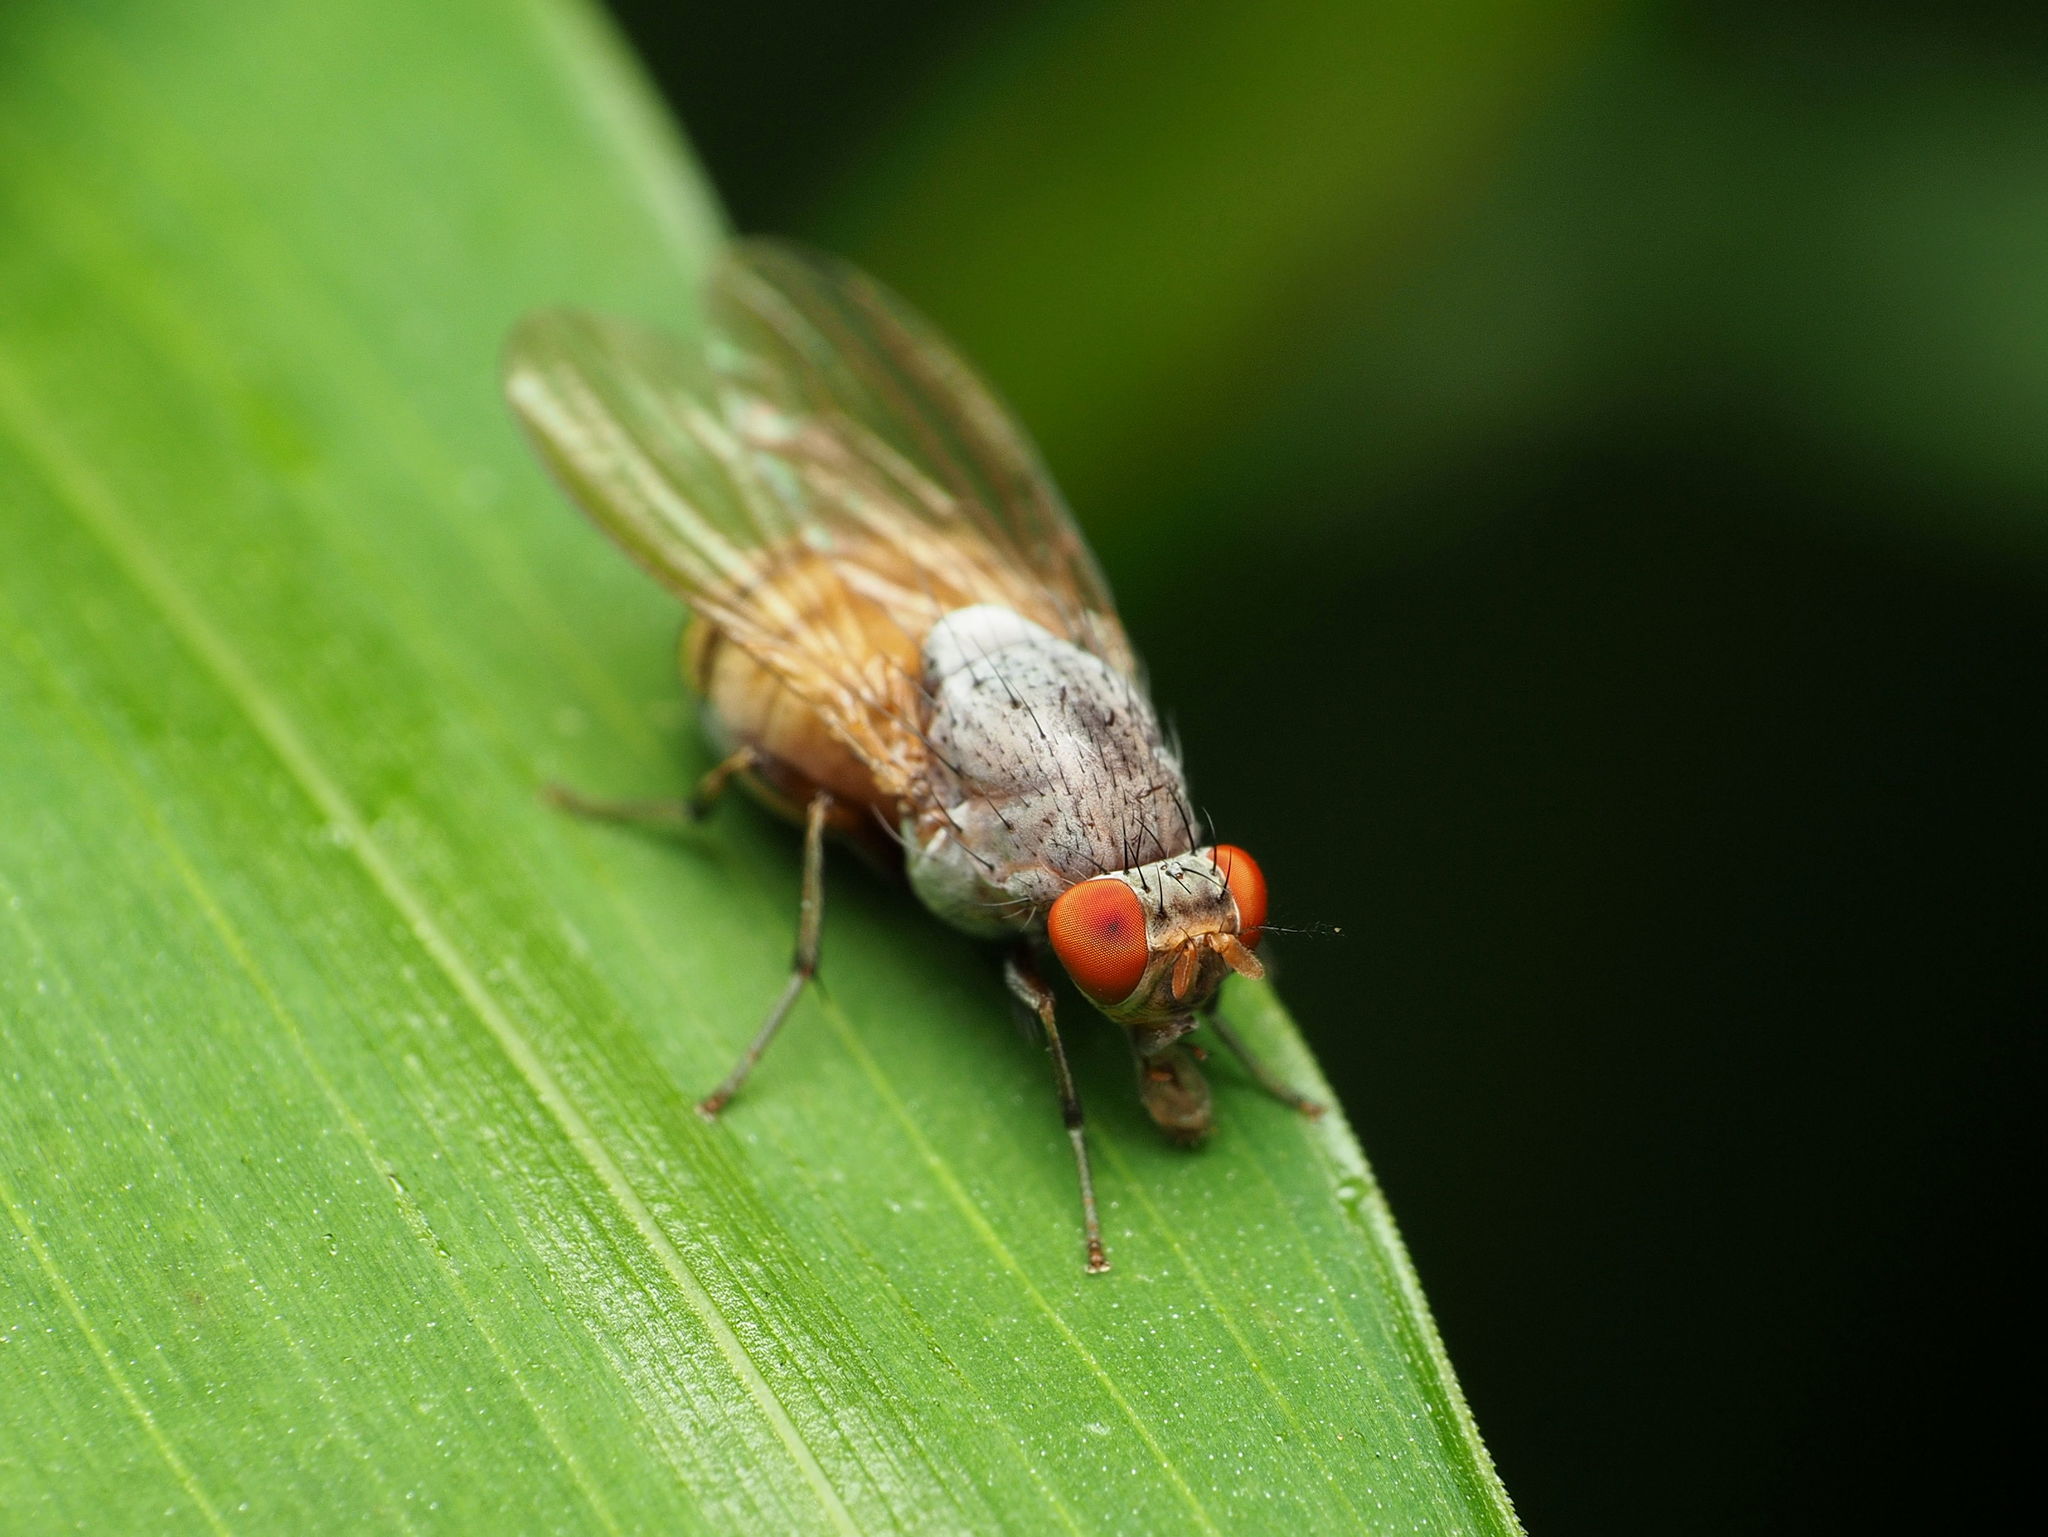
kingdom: Animalia
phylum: Arthropoda
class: Insecta
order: Diptera
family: Lauxaniidae
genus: Minettia
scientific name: Minettia magna
